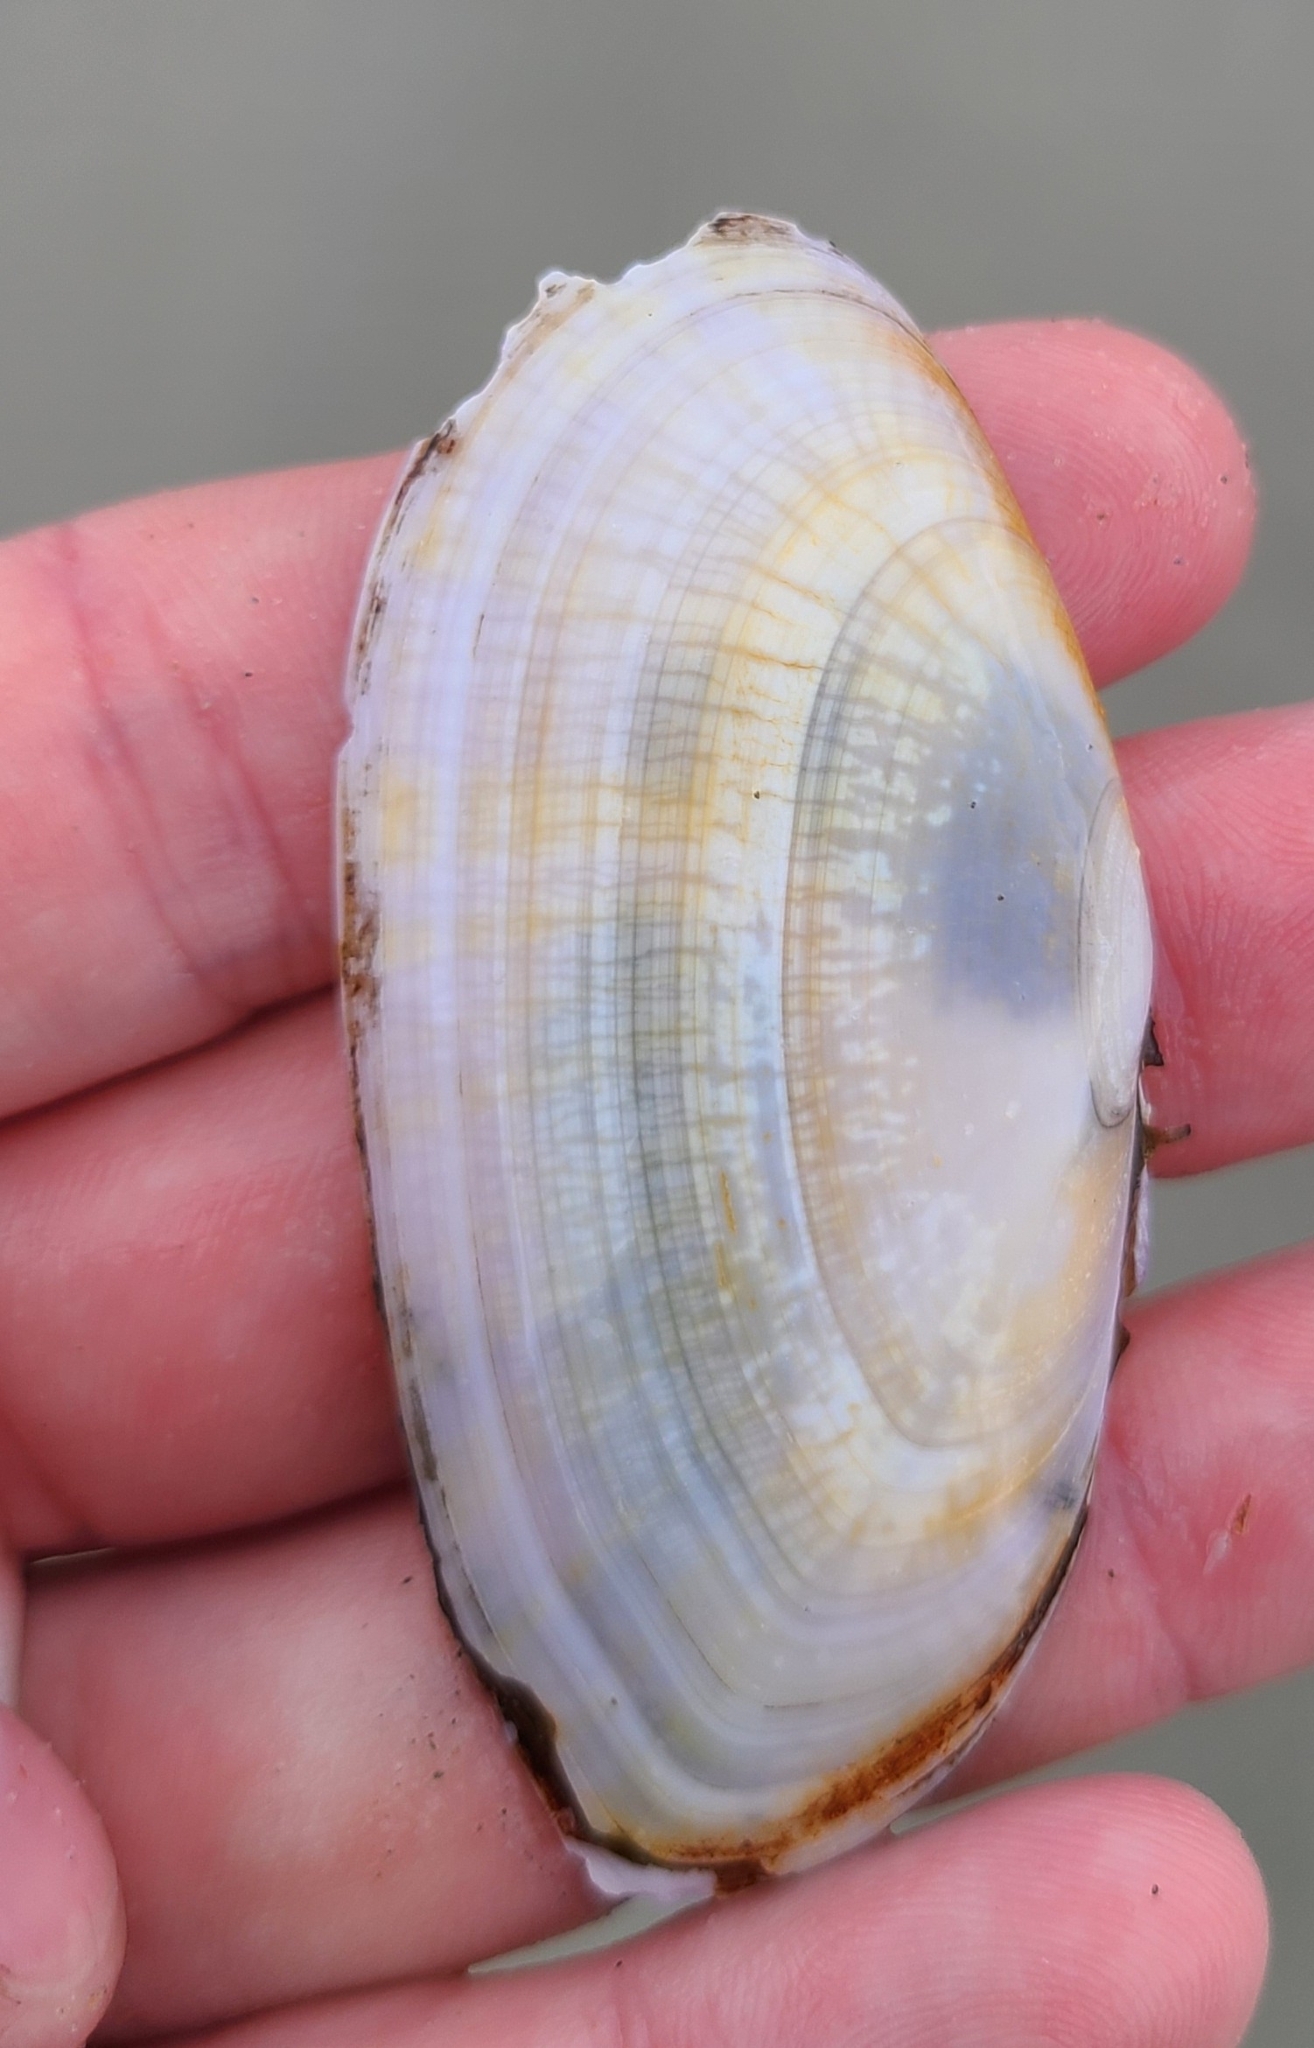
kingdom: Animalia
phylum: Mollusca
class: Bivalvia
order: Cardiida
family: Psammobiidae
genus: Gari
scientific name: Gari convexa
